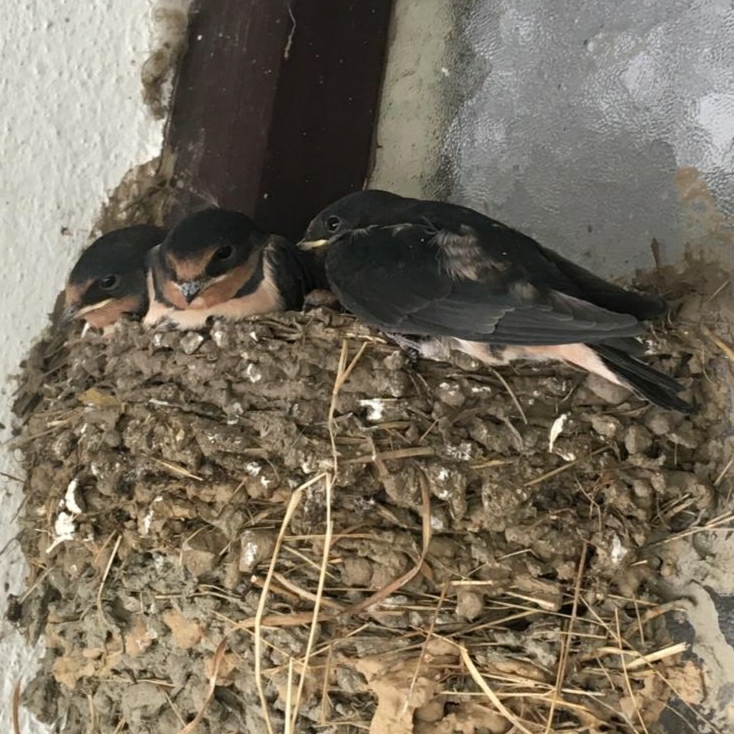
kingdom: Animalia
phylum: Chordata
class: Aves
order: Passeriformes
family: Hirundinidae
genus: Hirundo
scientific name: Hirundo rustica
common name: Barn swallow
